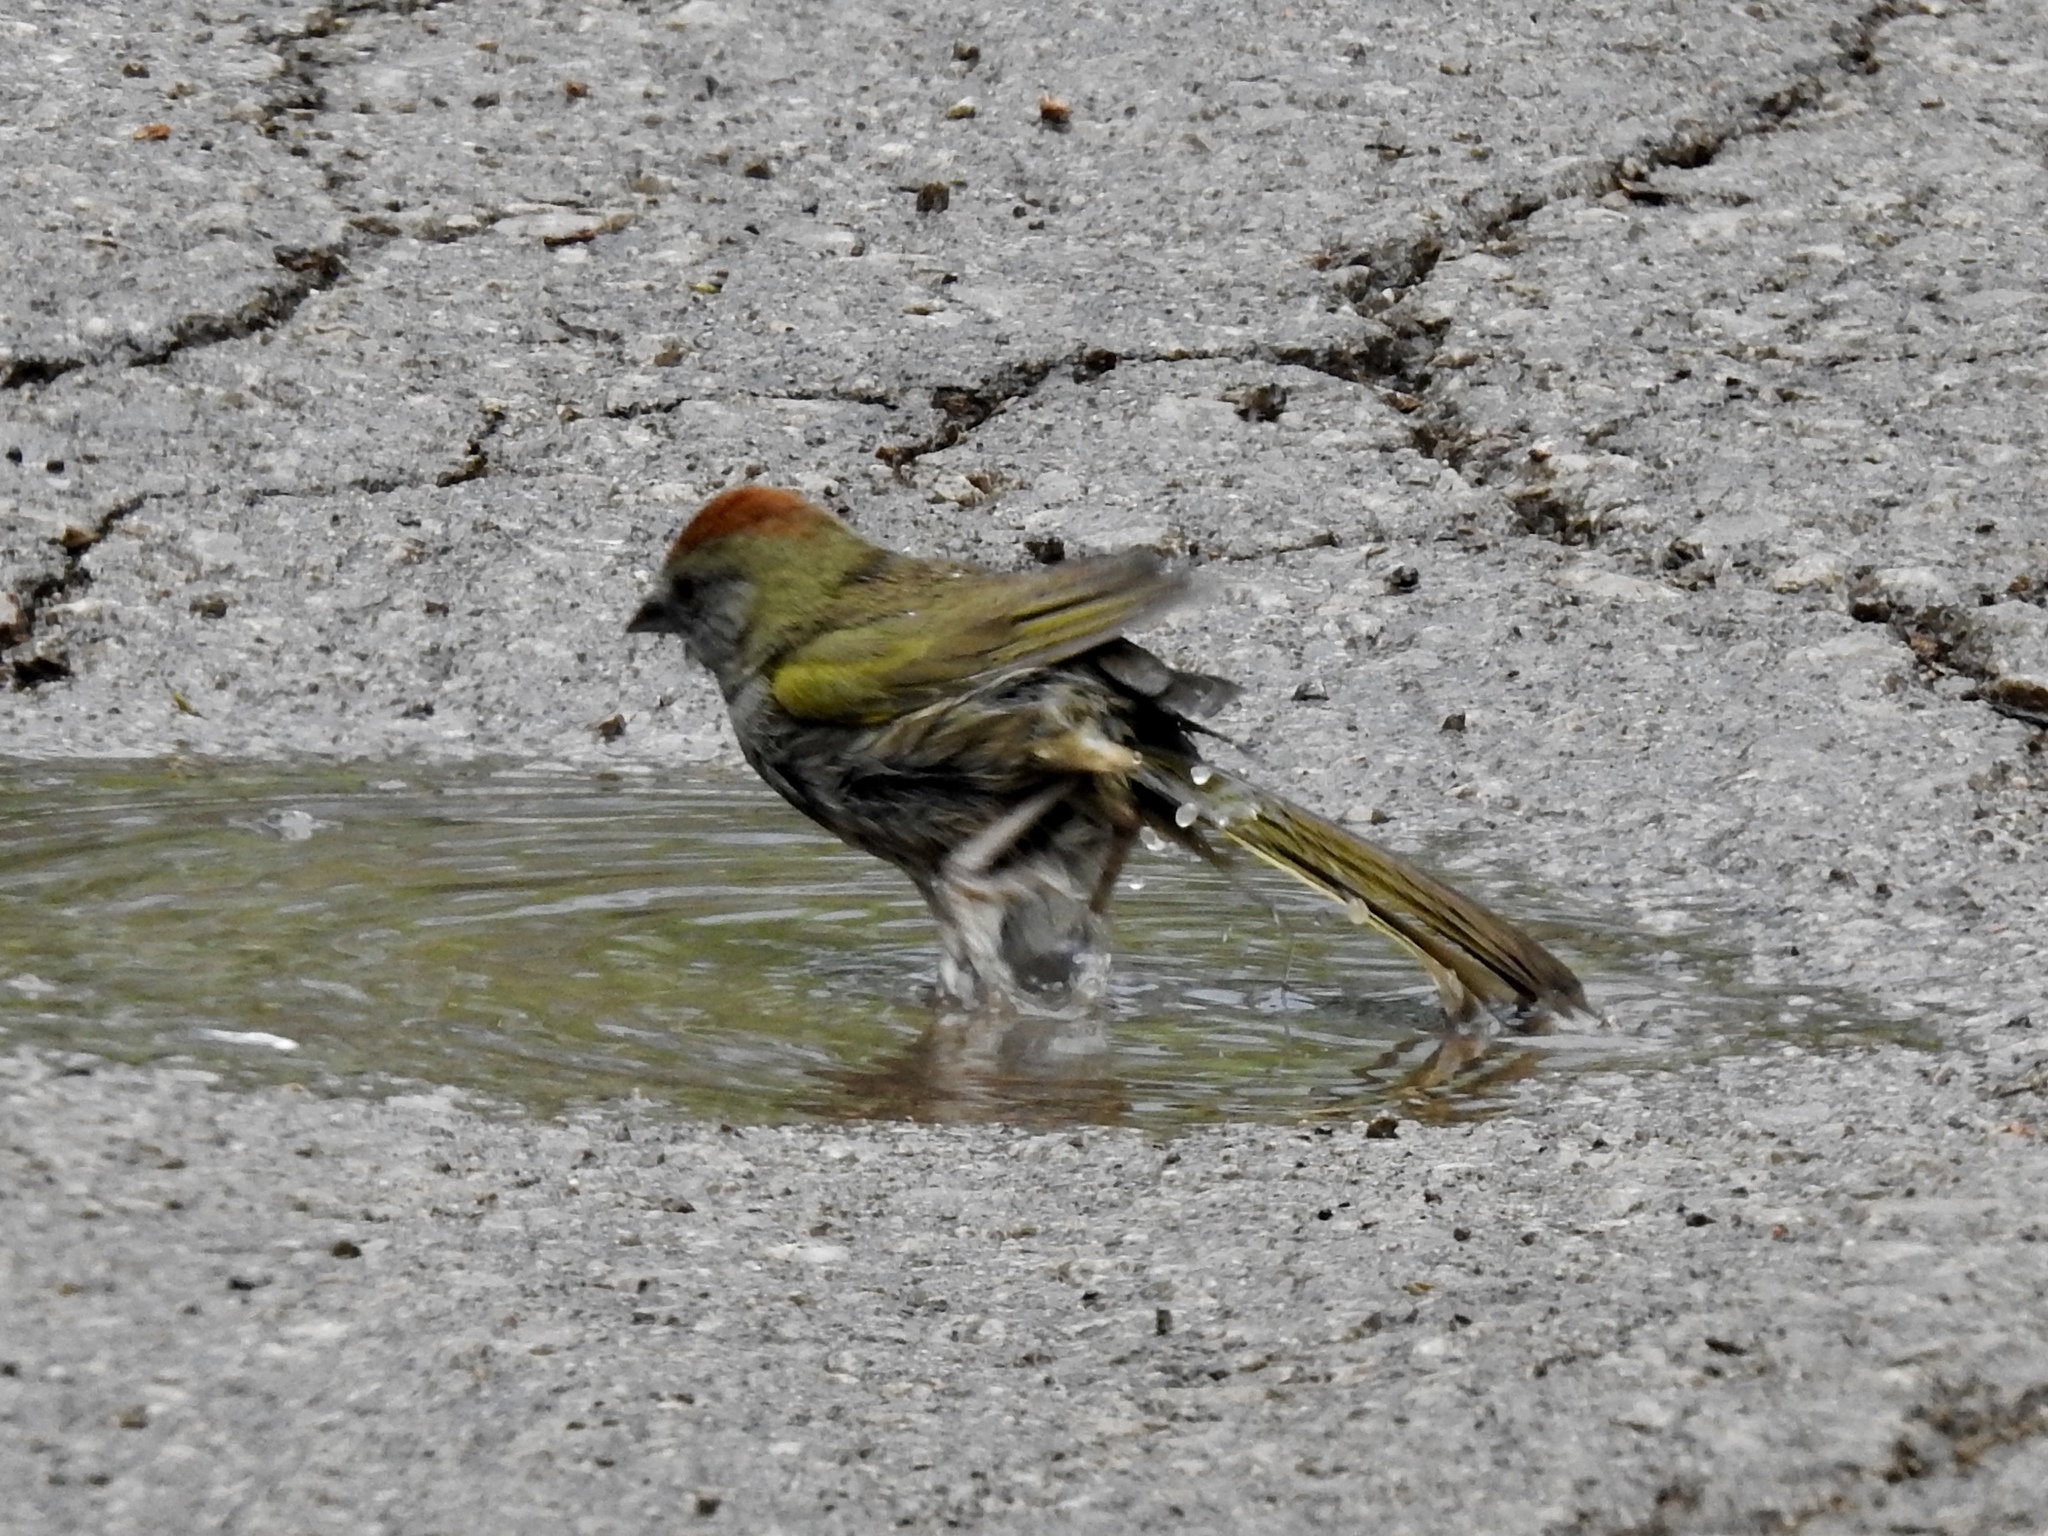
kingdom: Animalia
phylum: Chordata
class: Aves
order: Passeriformes
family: Passerellidae
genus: Pipilo
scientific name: Pipilo chlorurus
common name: Green-tailed towhee
